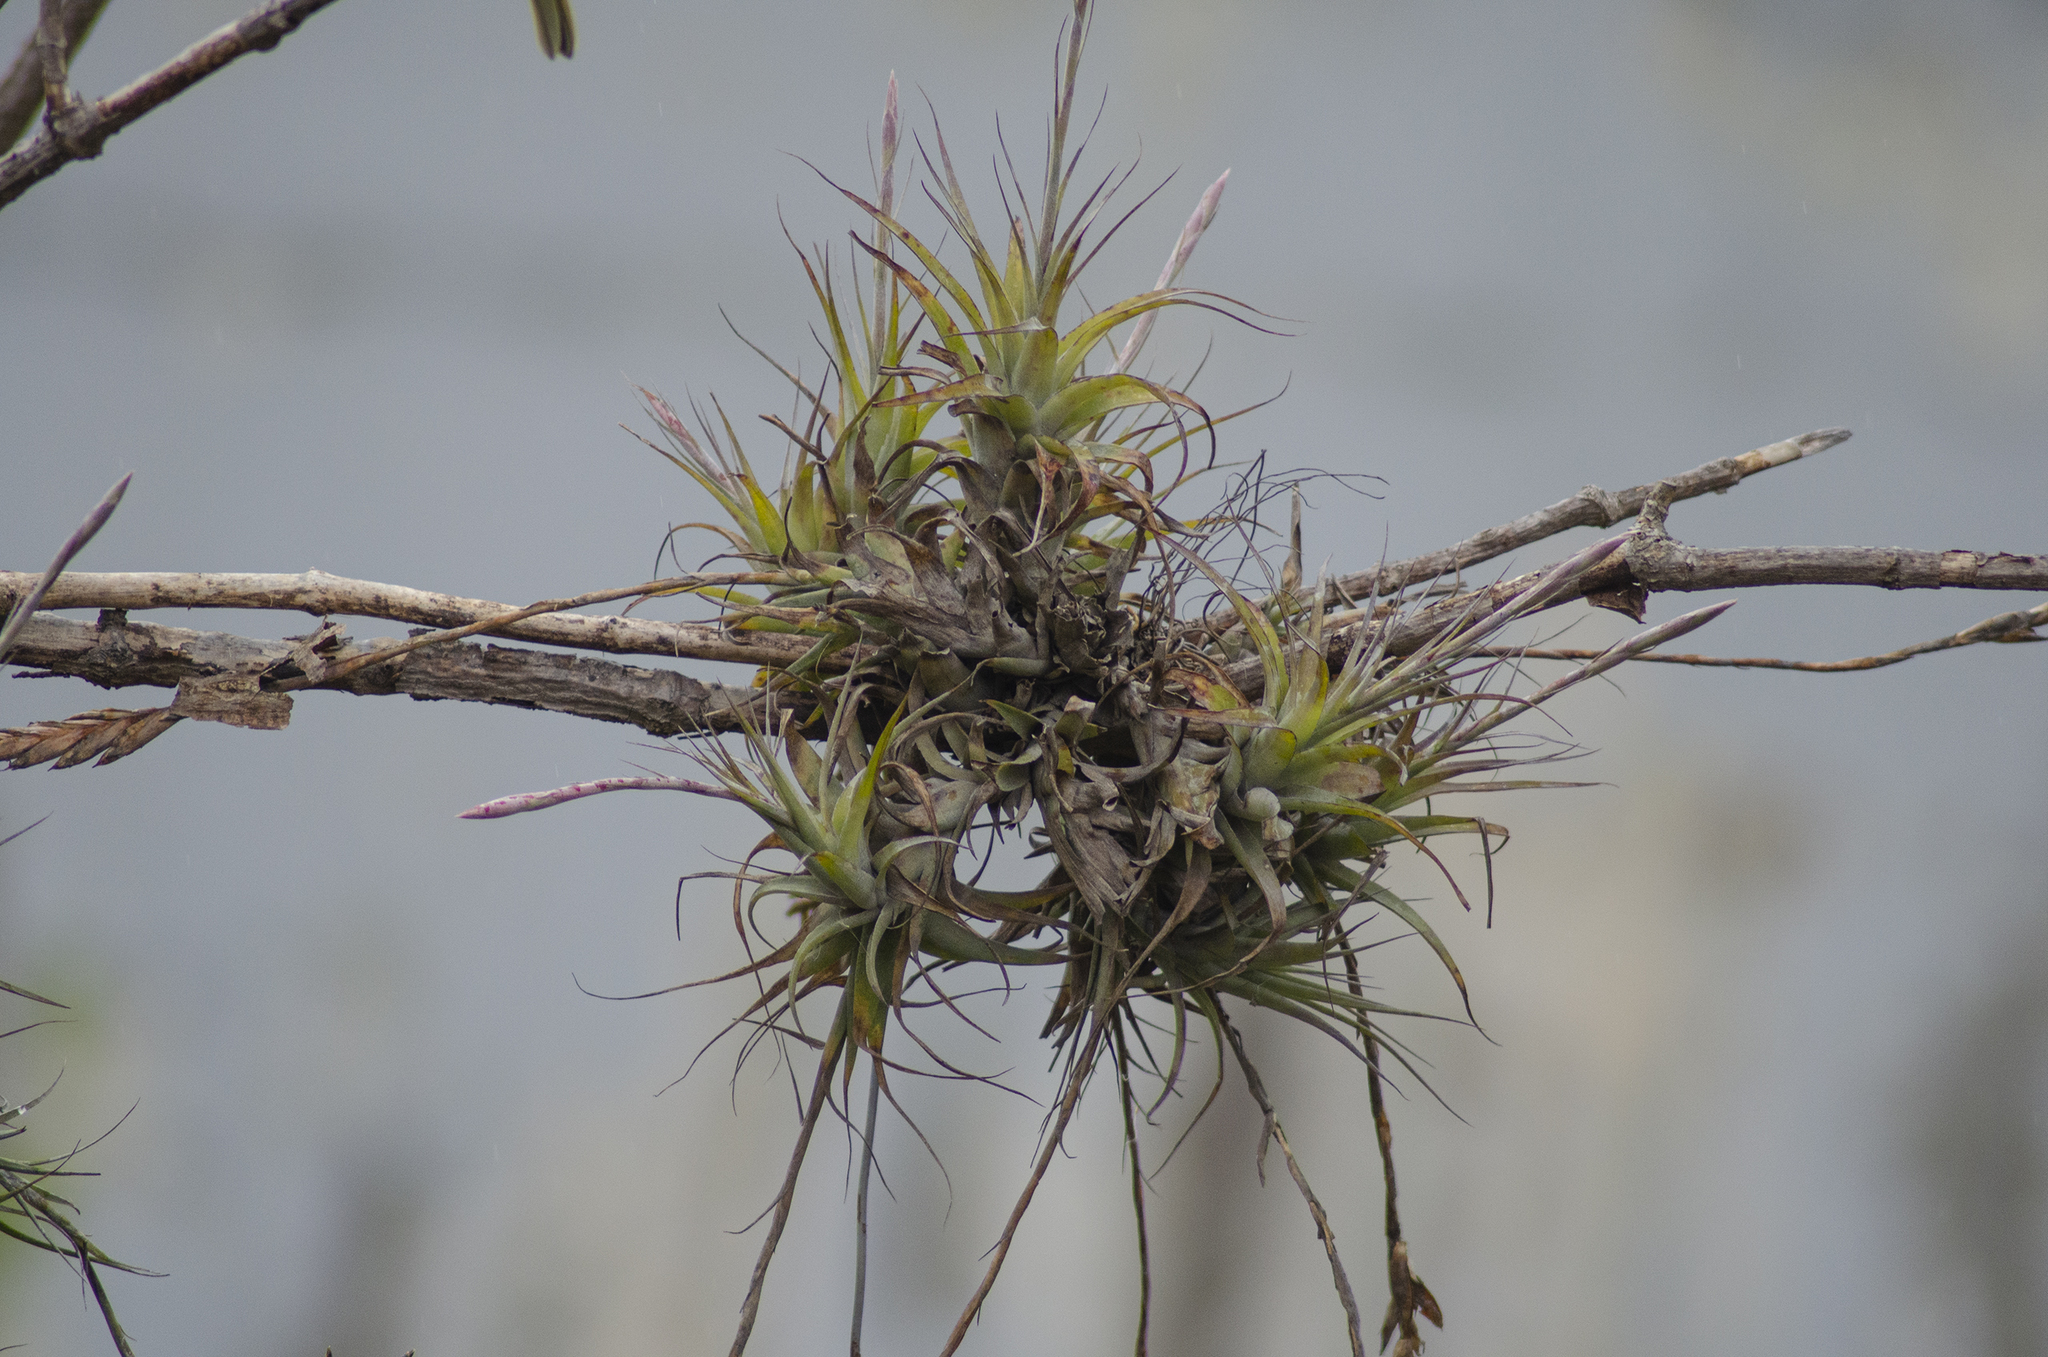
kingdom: Plantae
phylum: Tracheophyta
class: Liliopsida
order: Poales
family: Bromeliaceae
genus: Tillandsia
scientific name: Tillandsia incarnata
